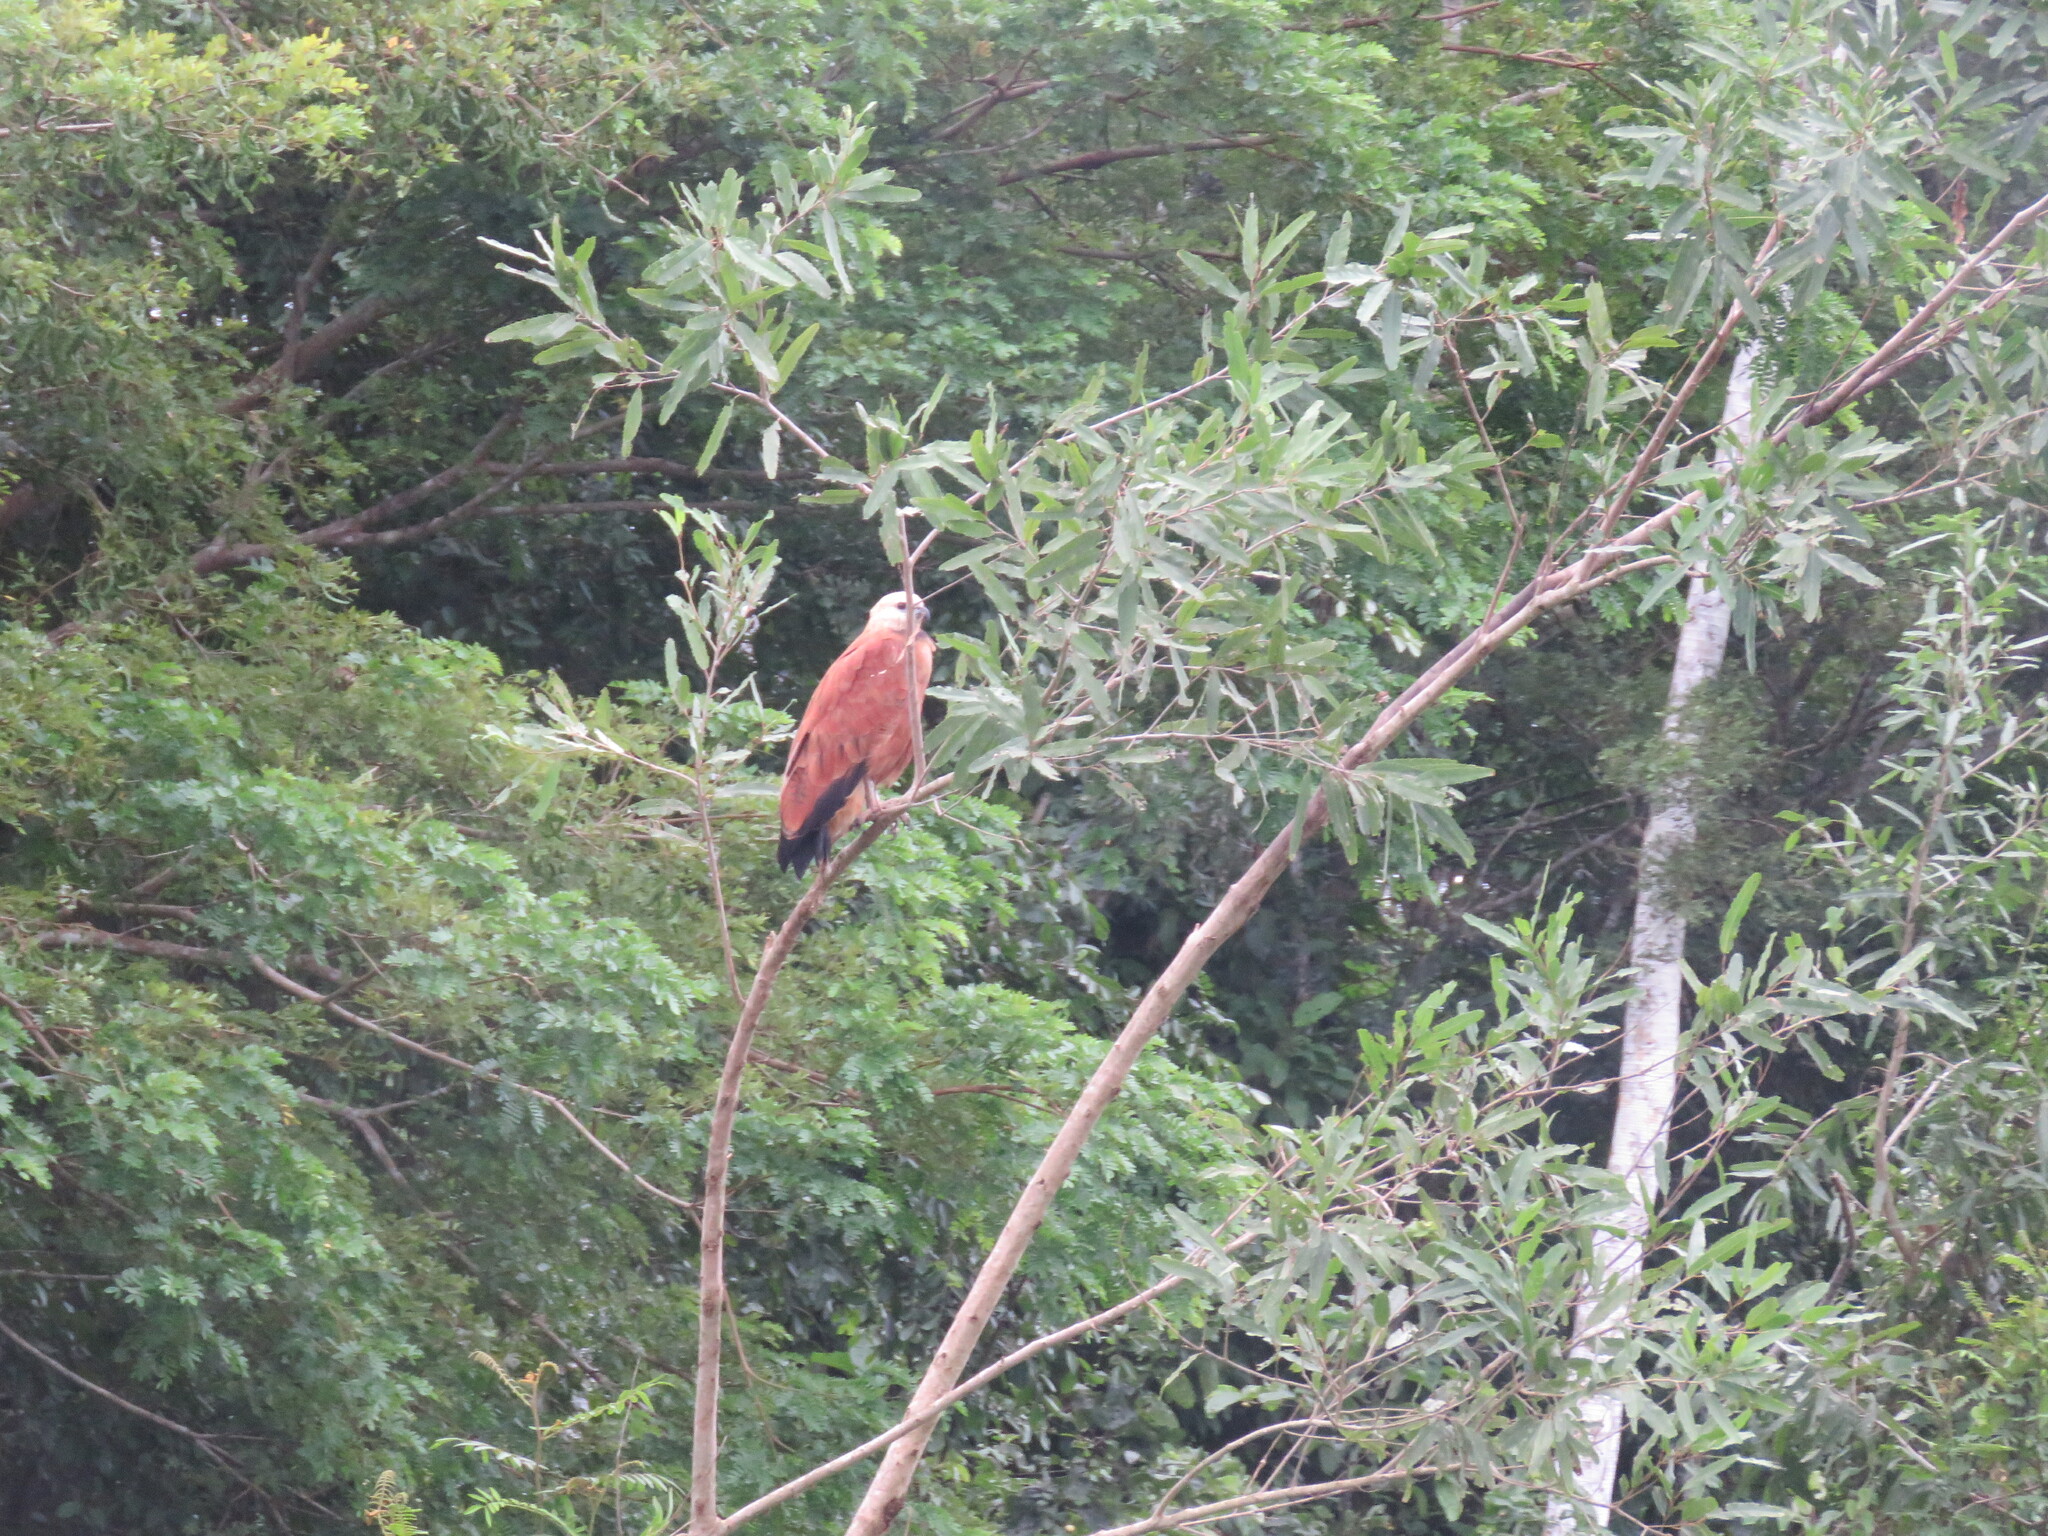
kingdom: Animalia
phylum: Chordata
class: Aves
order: Accipitriformes
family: Accipitridae
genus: Busarellus
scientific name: Busarellus nigricollis
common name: Black-collared hawk
